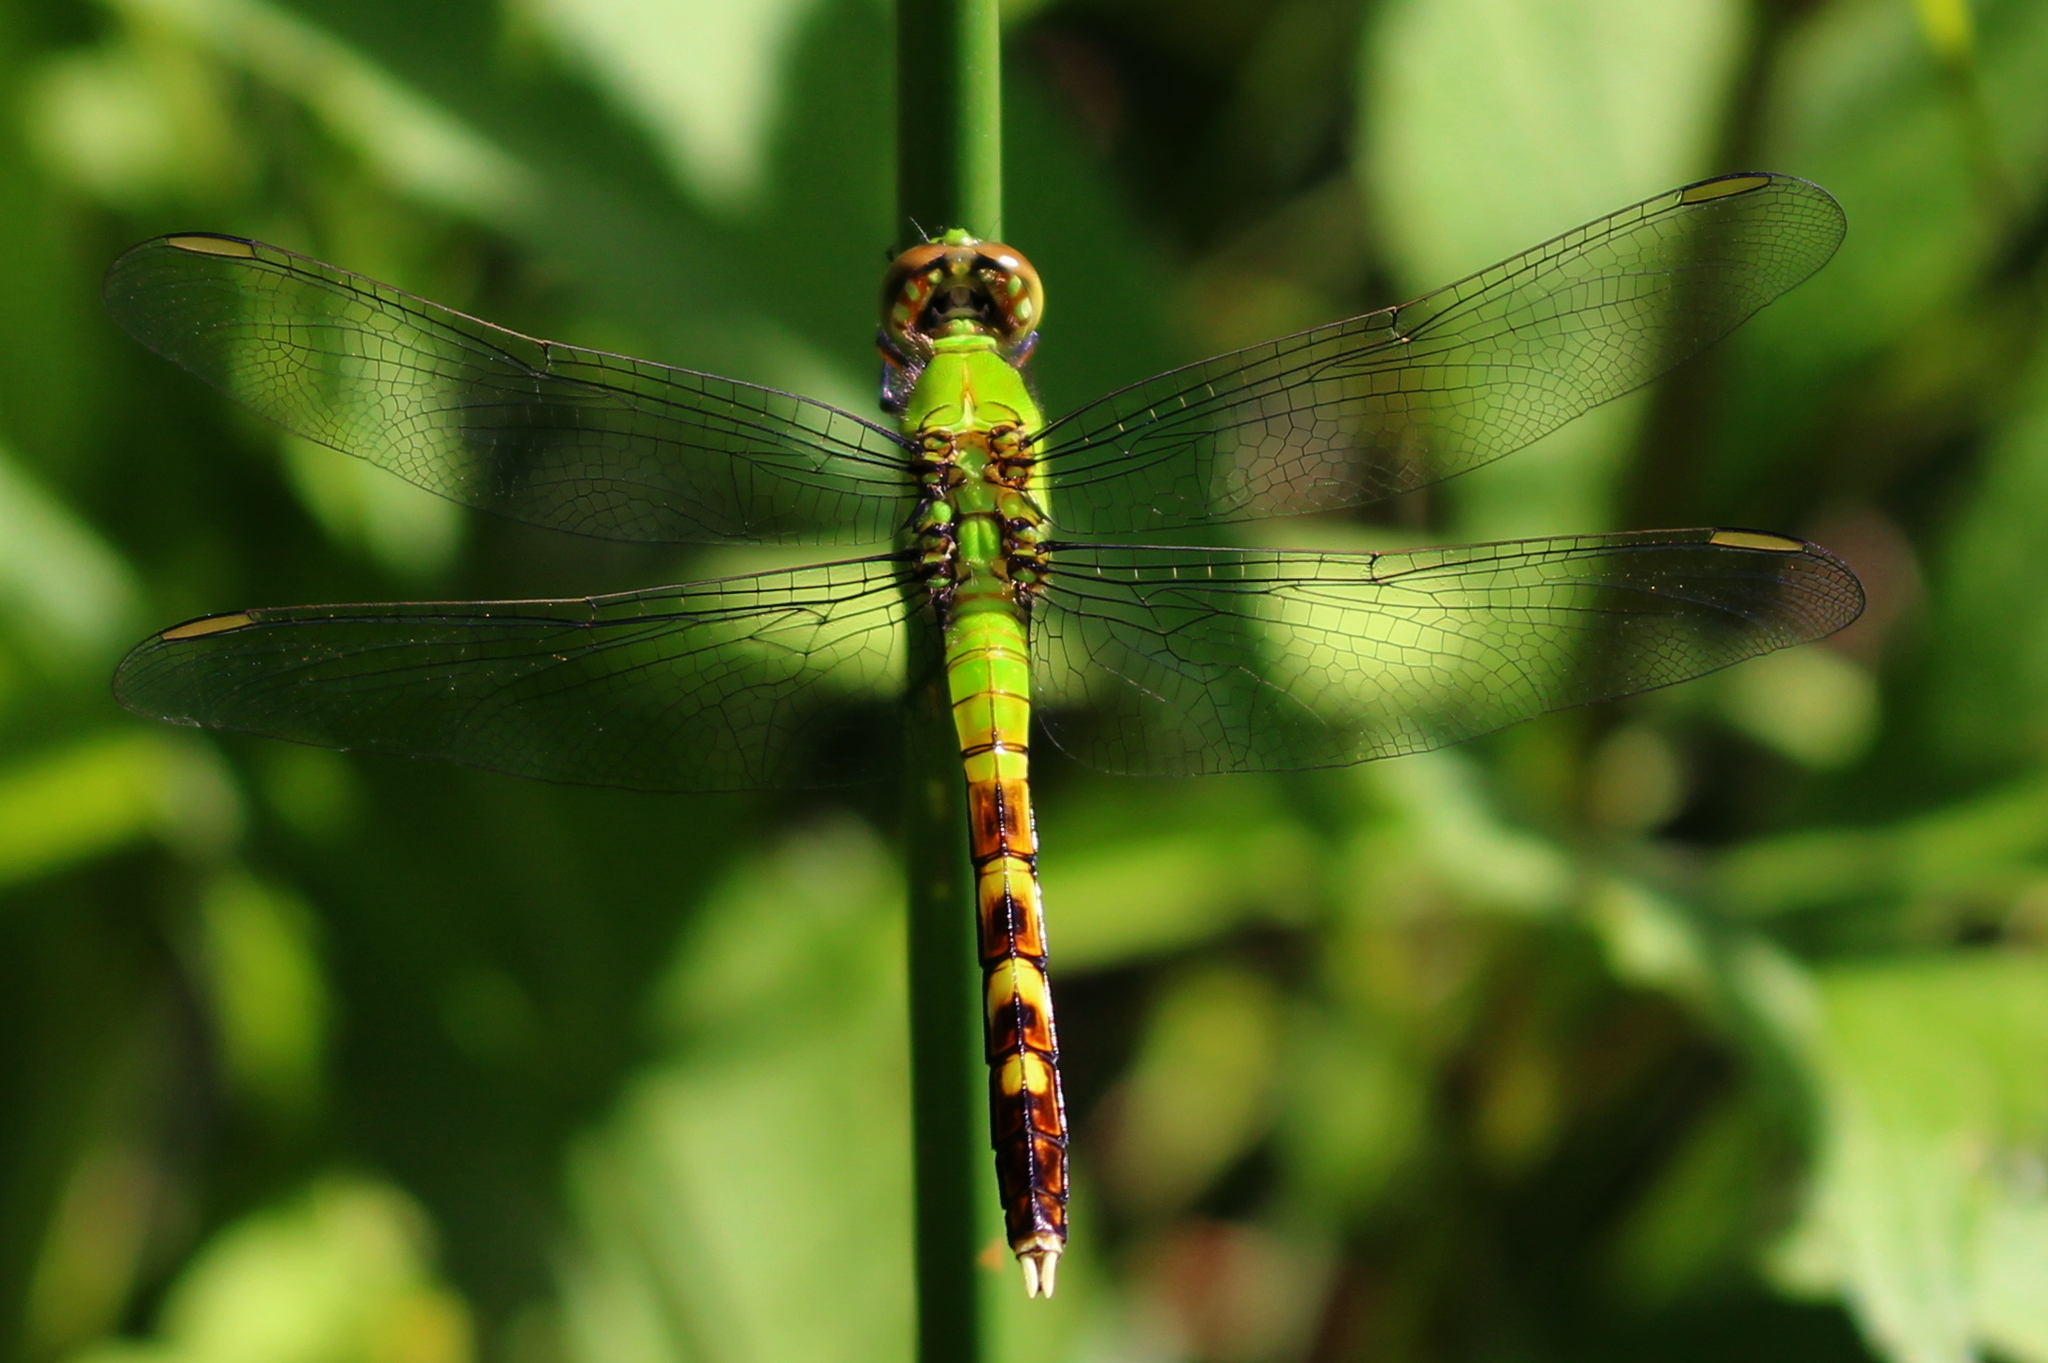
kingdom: Animalia
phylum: Arthropoda
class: Insecta
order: Odonata
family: Libellulidae
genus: Erythemis
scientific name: Erythemis simplicicollis
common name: Eastern pondhawk
